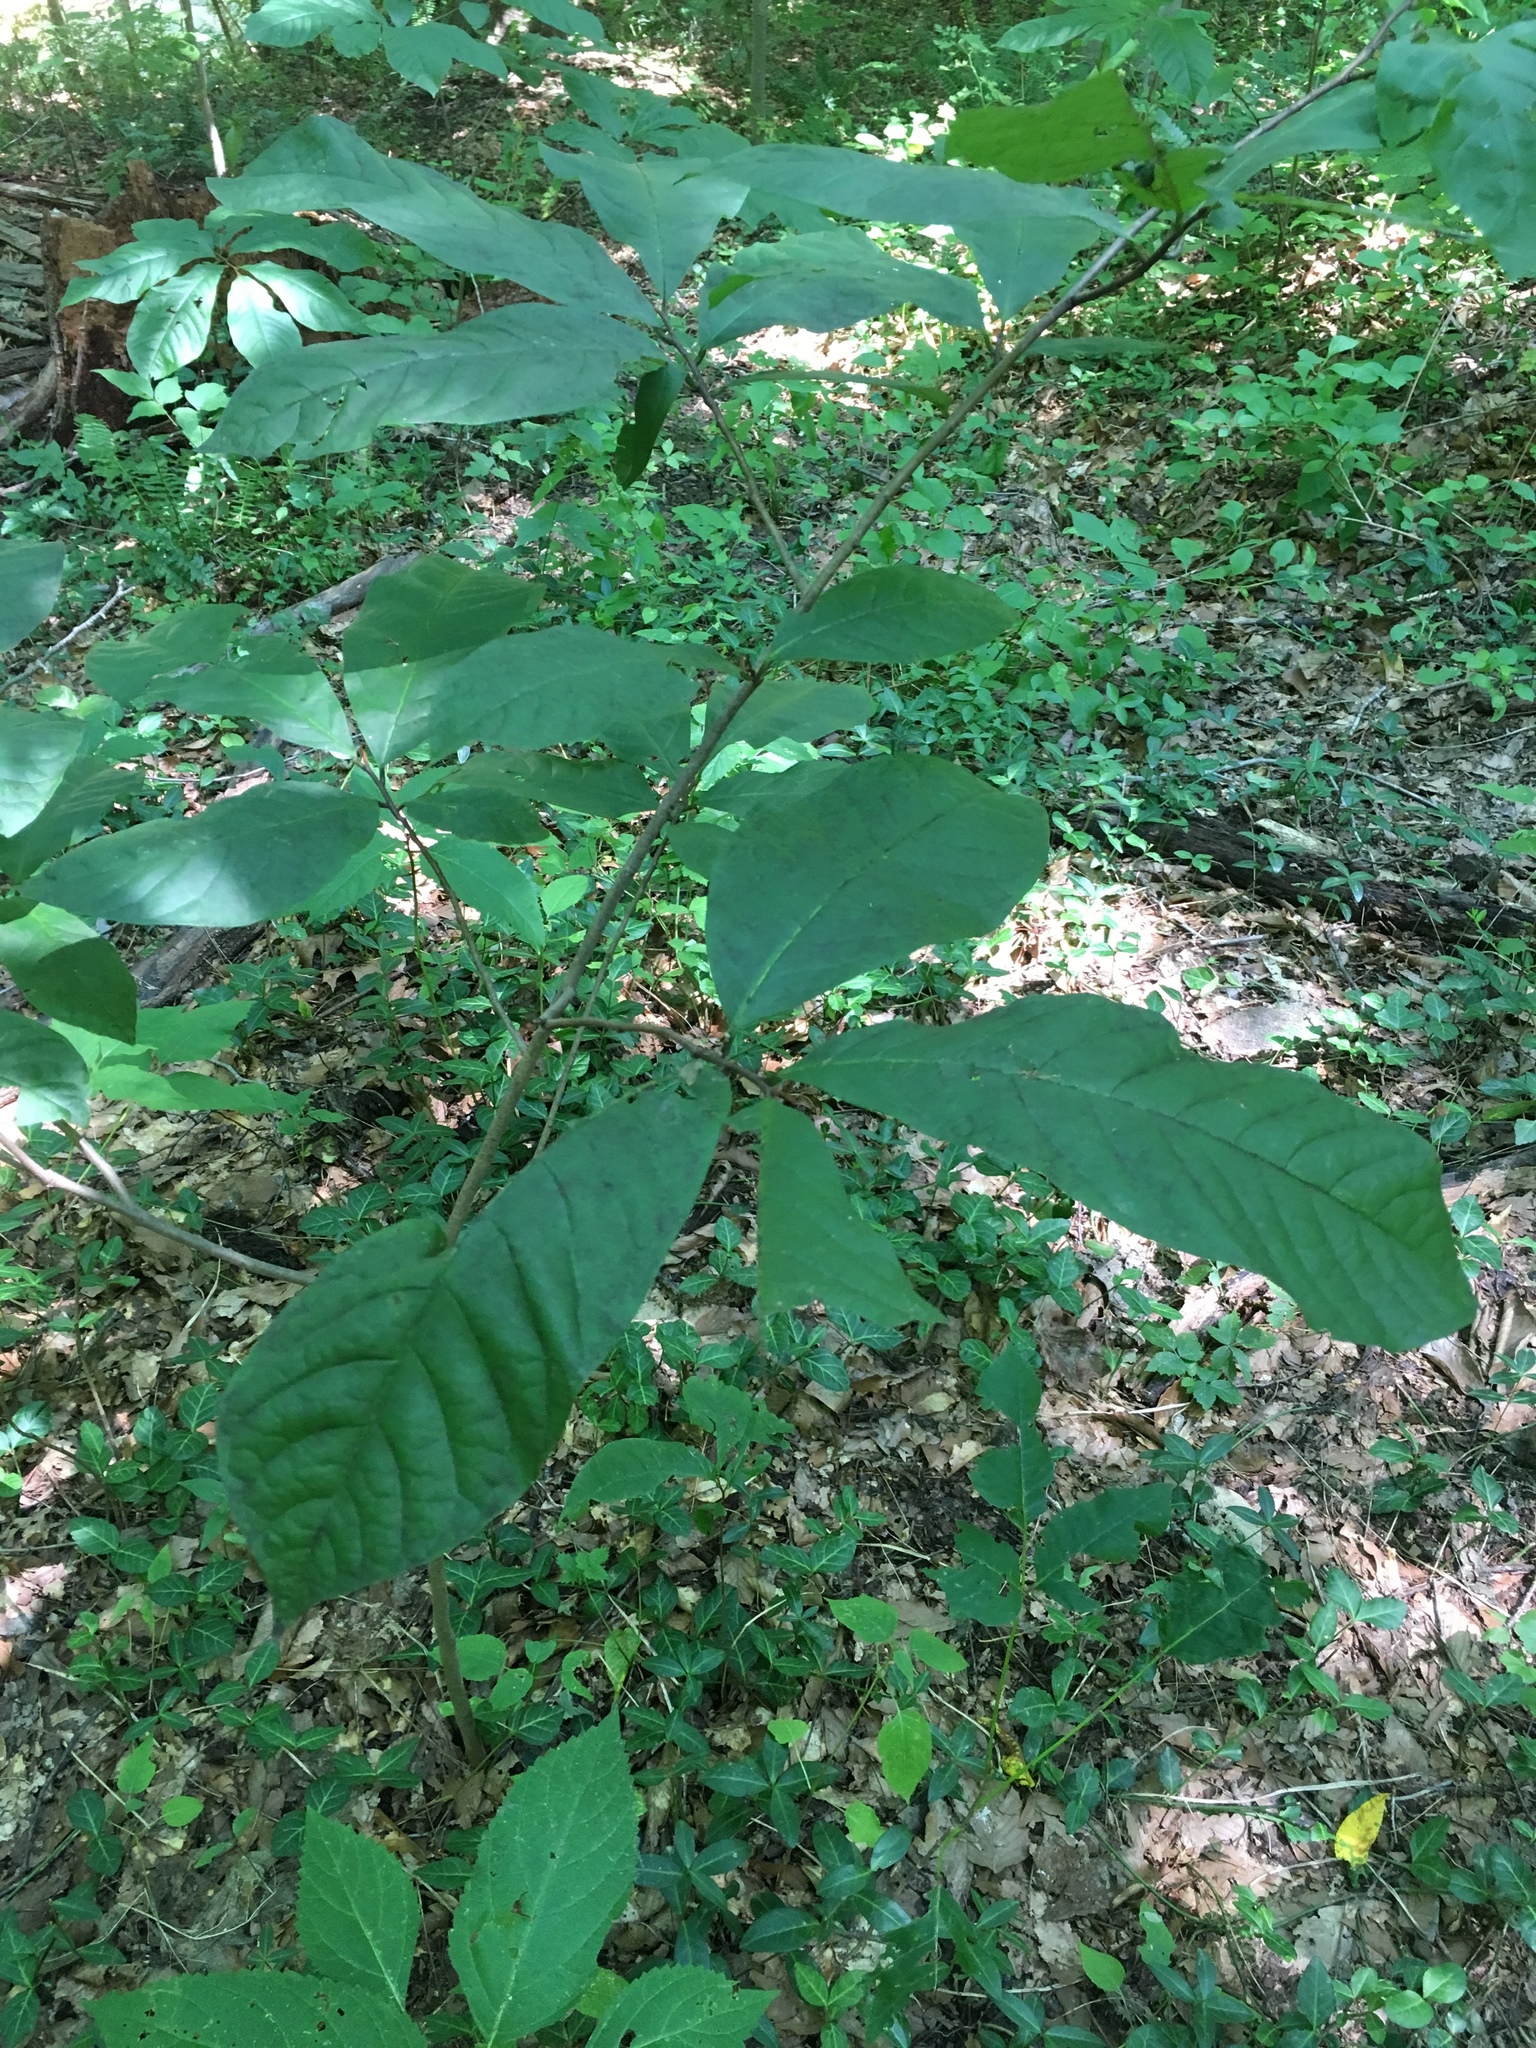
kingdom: Plantae
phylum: Tracheophyta
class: Magnoliopsida
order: Magnoliales
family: Annonaceae
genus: Asimina
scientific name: Asimina triloba
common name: Dog-banana
